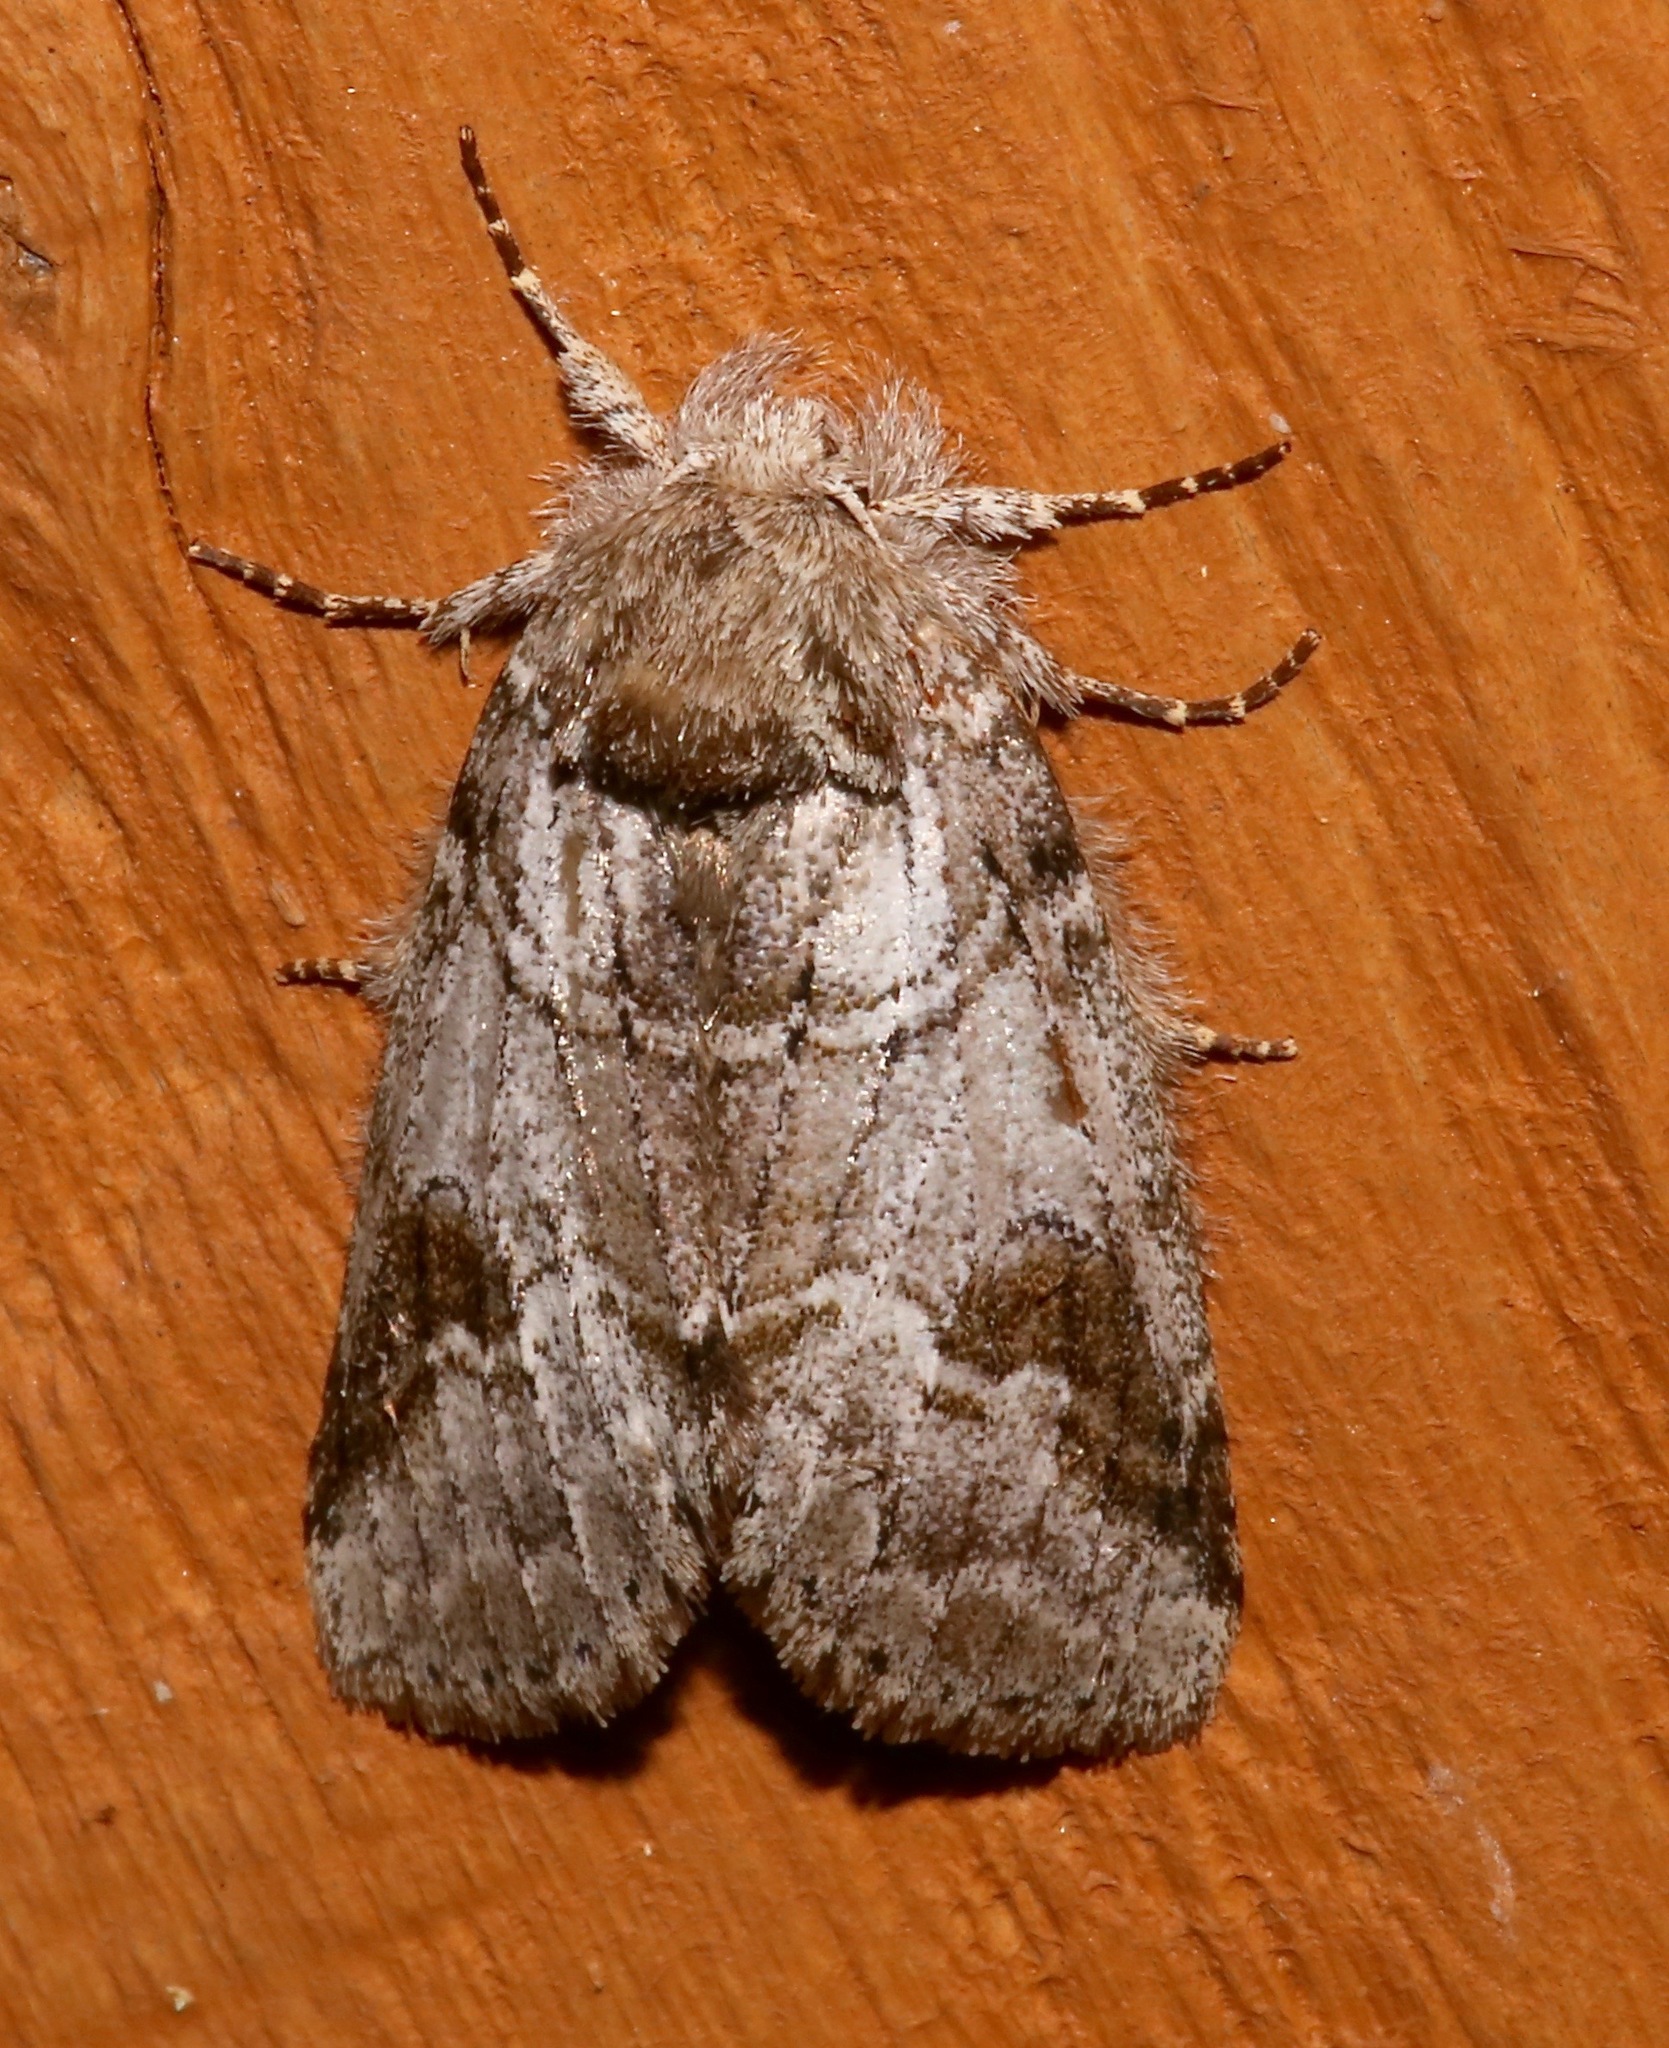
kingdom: Animalia
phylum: Arthropoda
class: Insecta
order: Lepidoptera
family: Notodontidae
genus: Lochmaeus
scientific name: Lochmaeus bilineata
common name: Double-lined prominent
